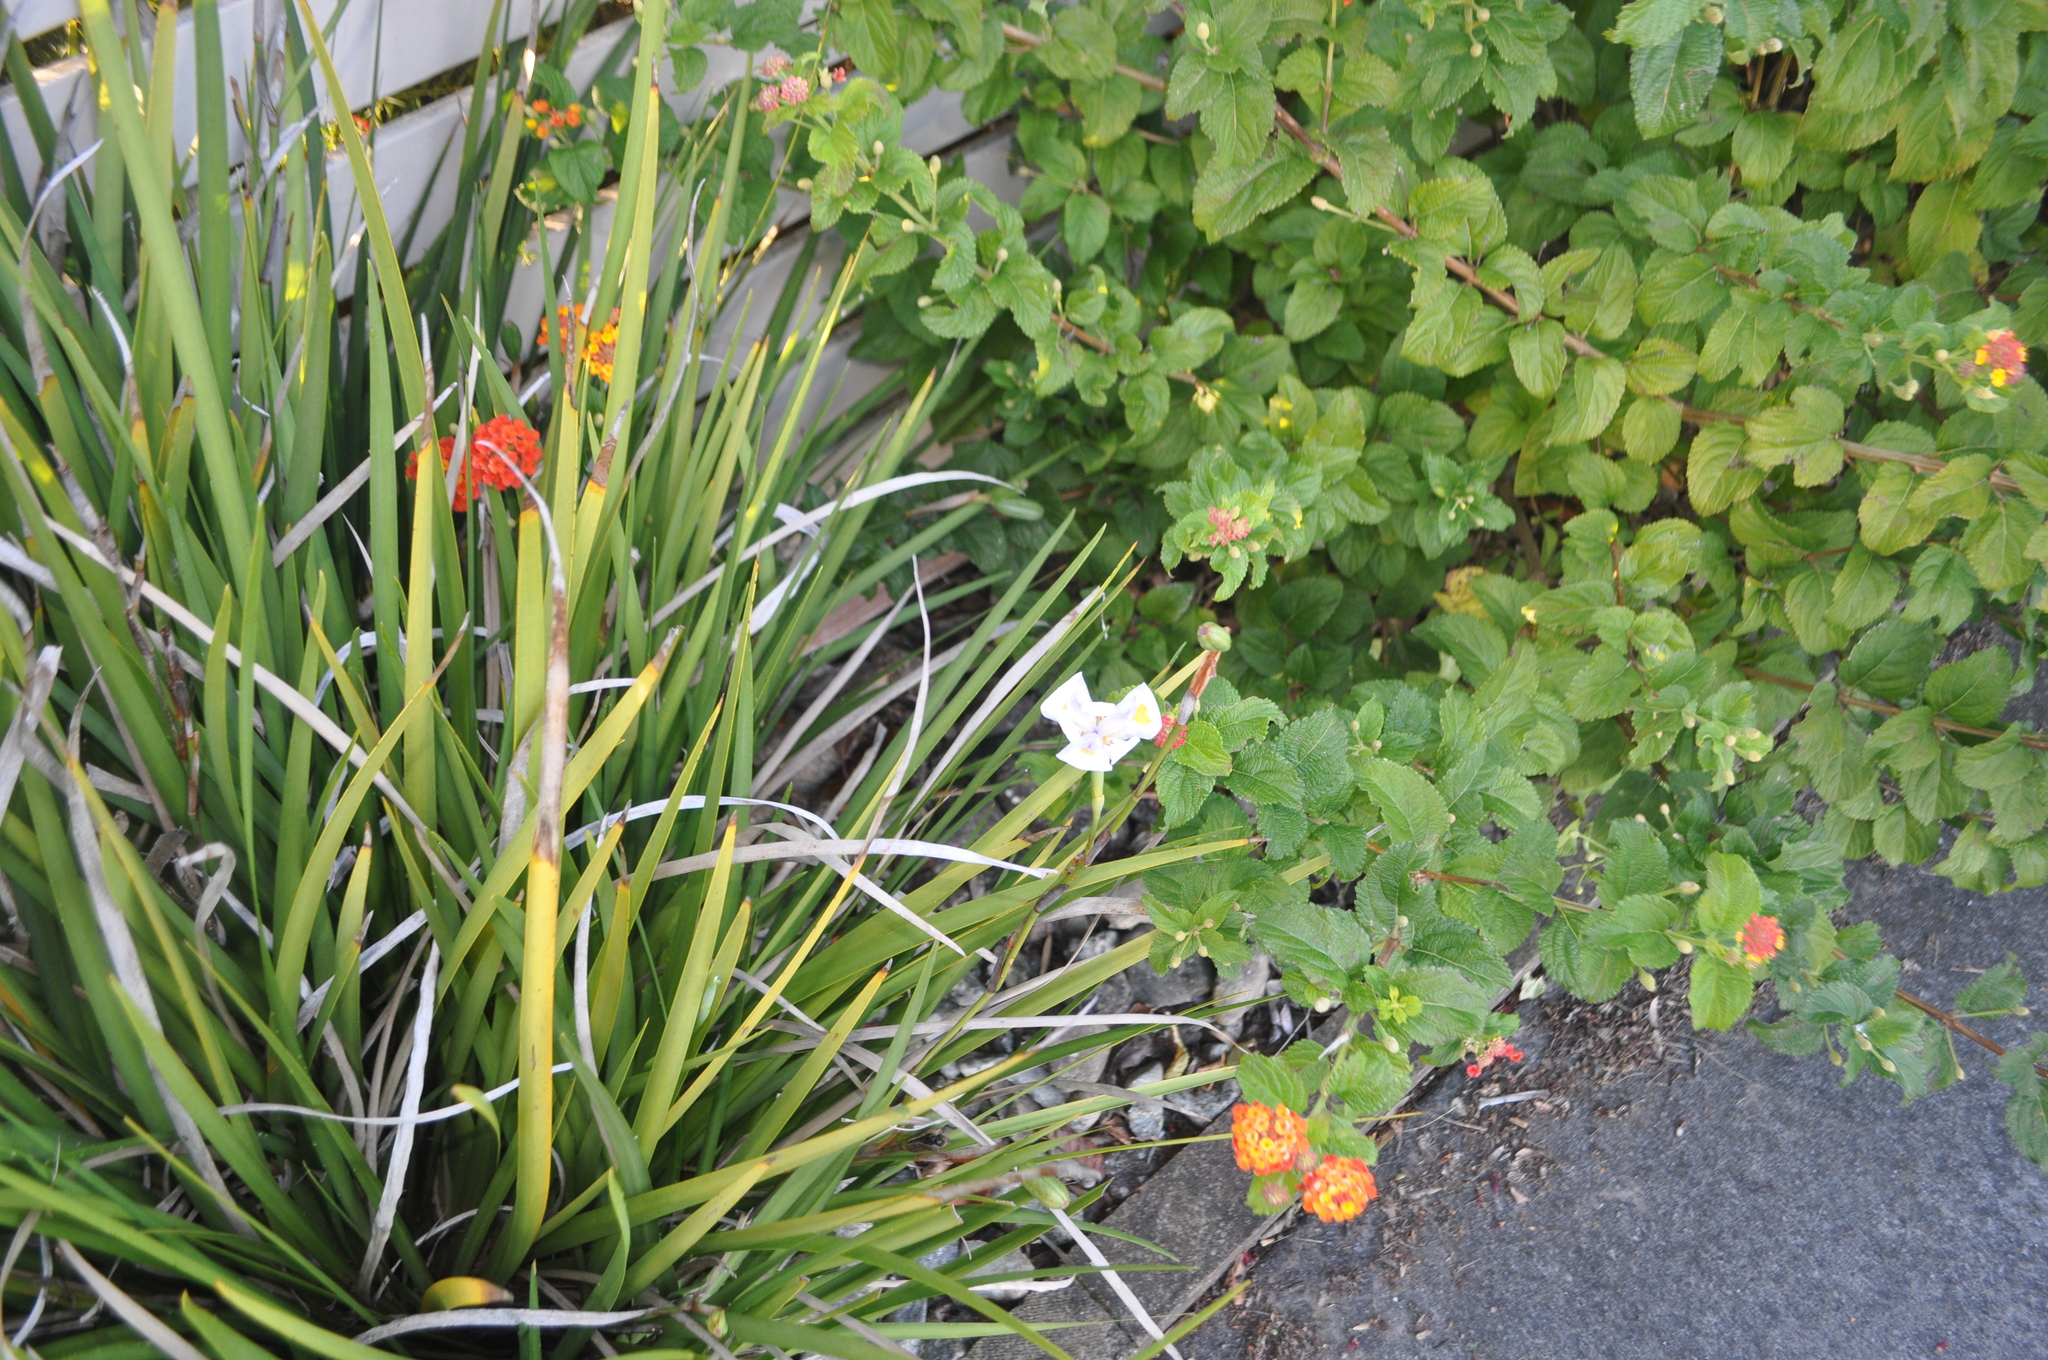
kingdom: Plantae
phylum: Tracheophyta
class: Liliopsida
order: Asparagales
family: Iridaceae
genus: Dietes
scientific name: Dietes grandiflora
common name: Wild iris
